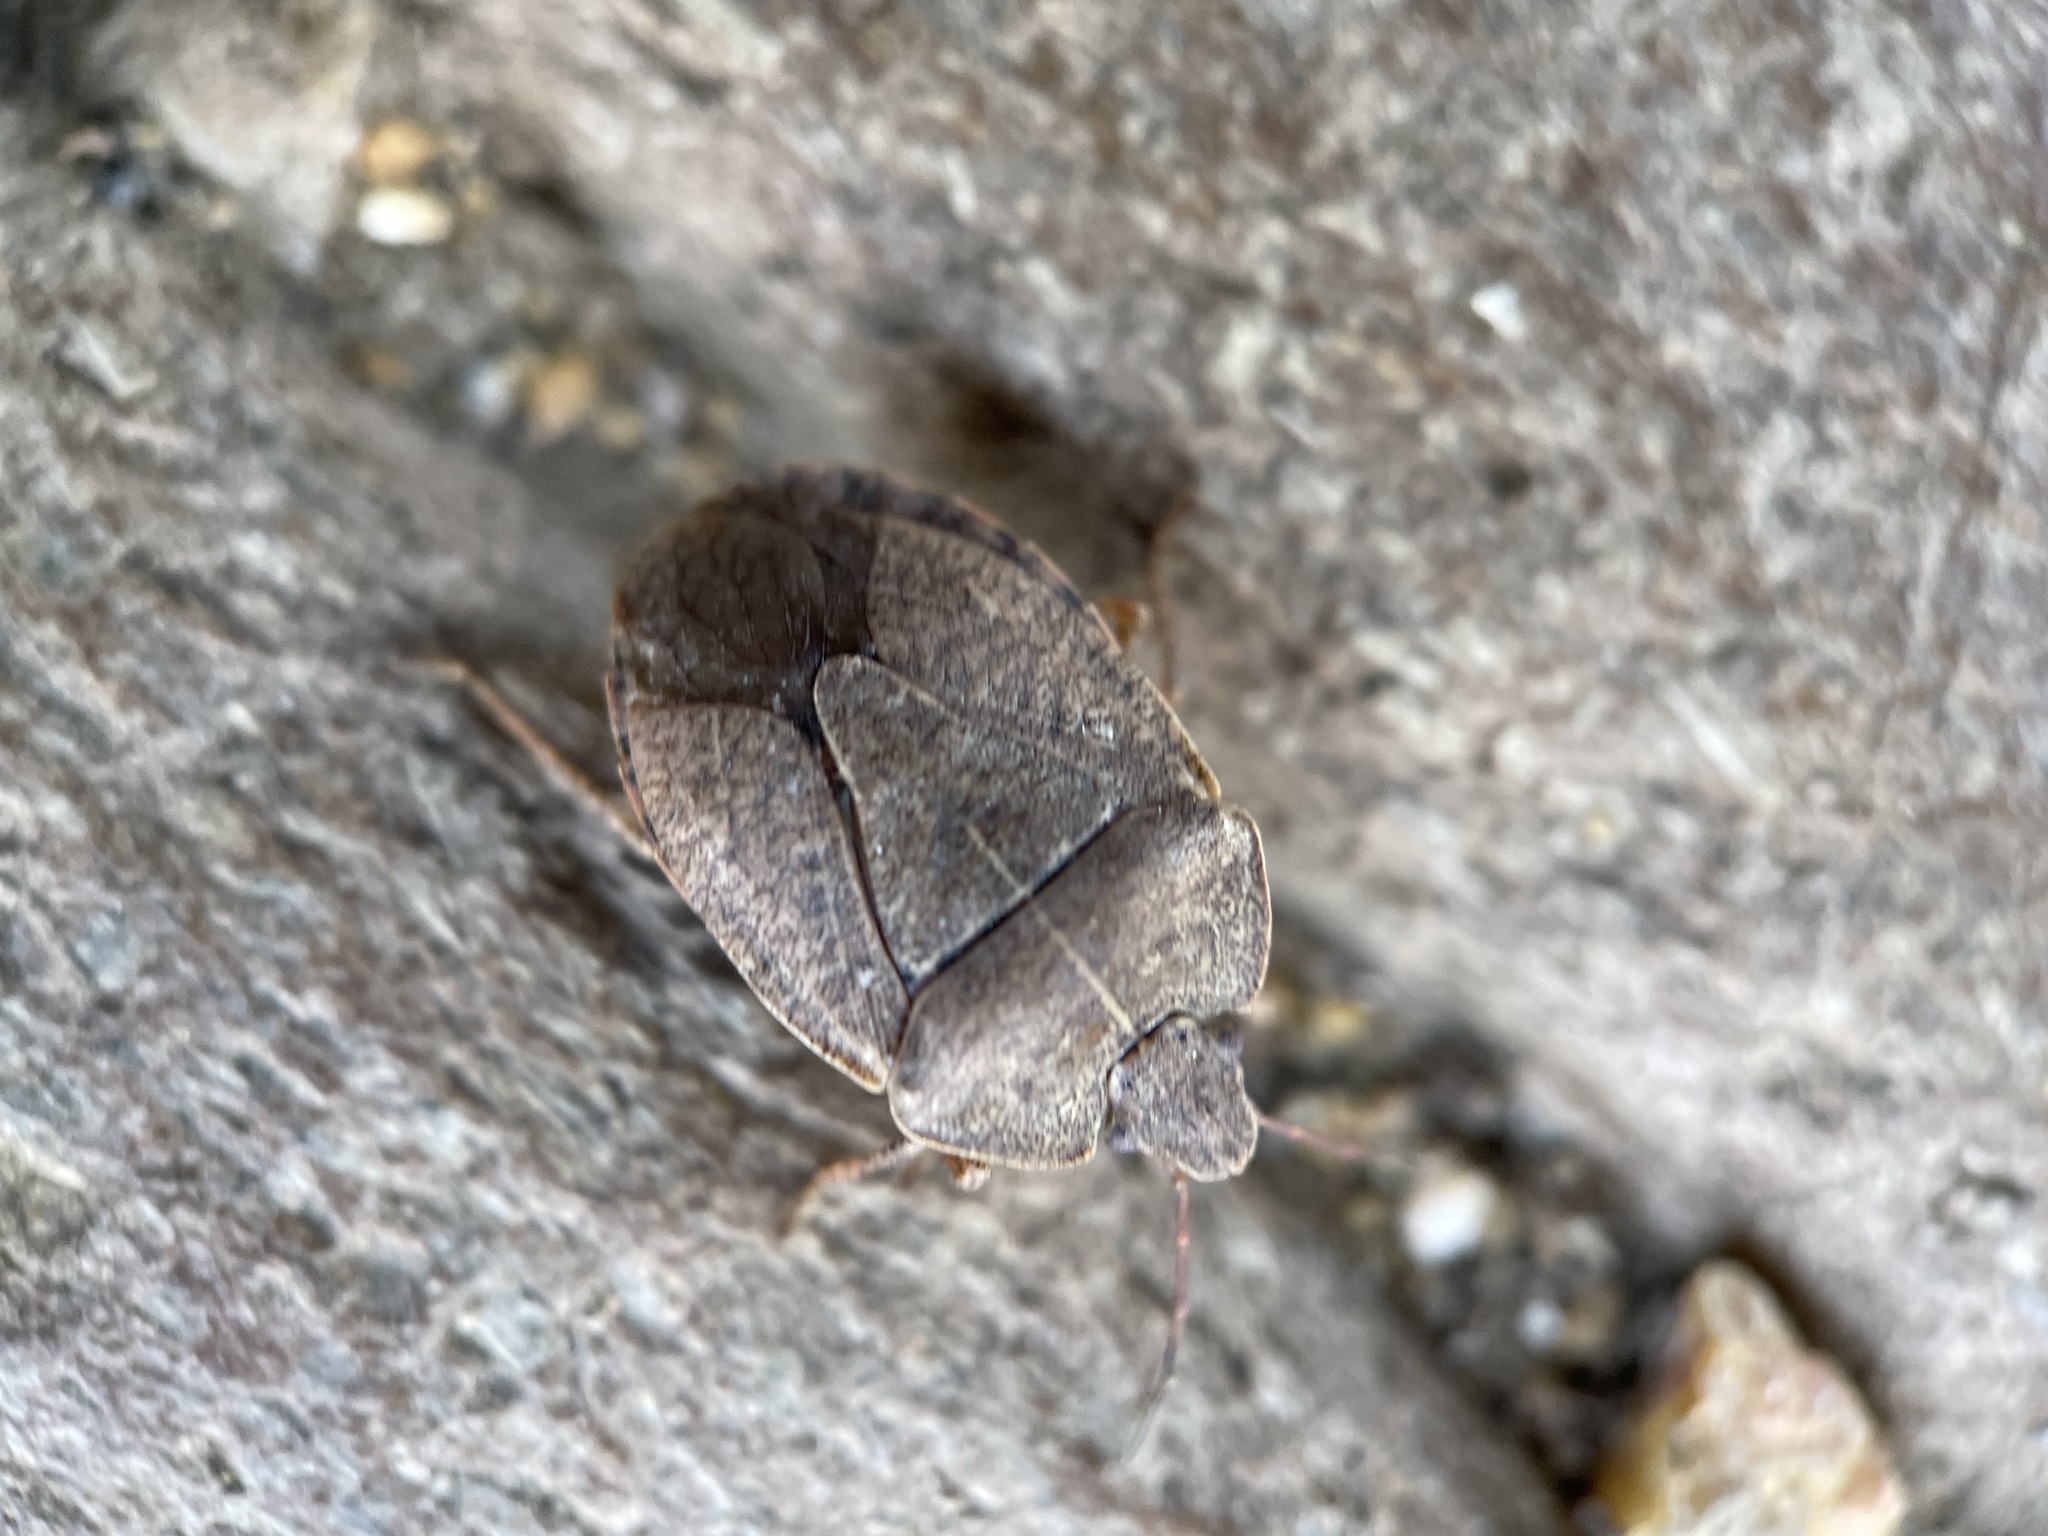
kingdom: Animalia
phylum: Arthropoda
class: Insecta
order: Hemiptera
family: Pentatomidae
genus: Menecles
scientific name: Menecles insertus
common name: Elf shoe stink bug
